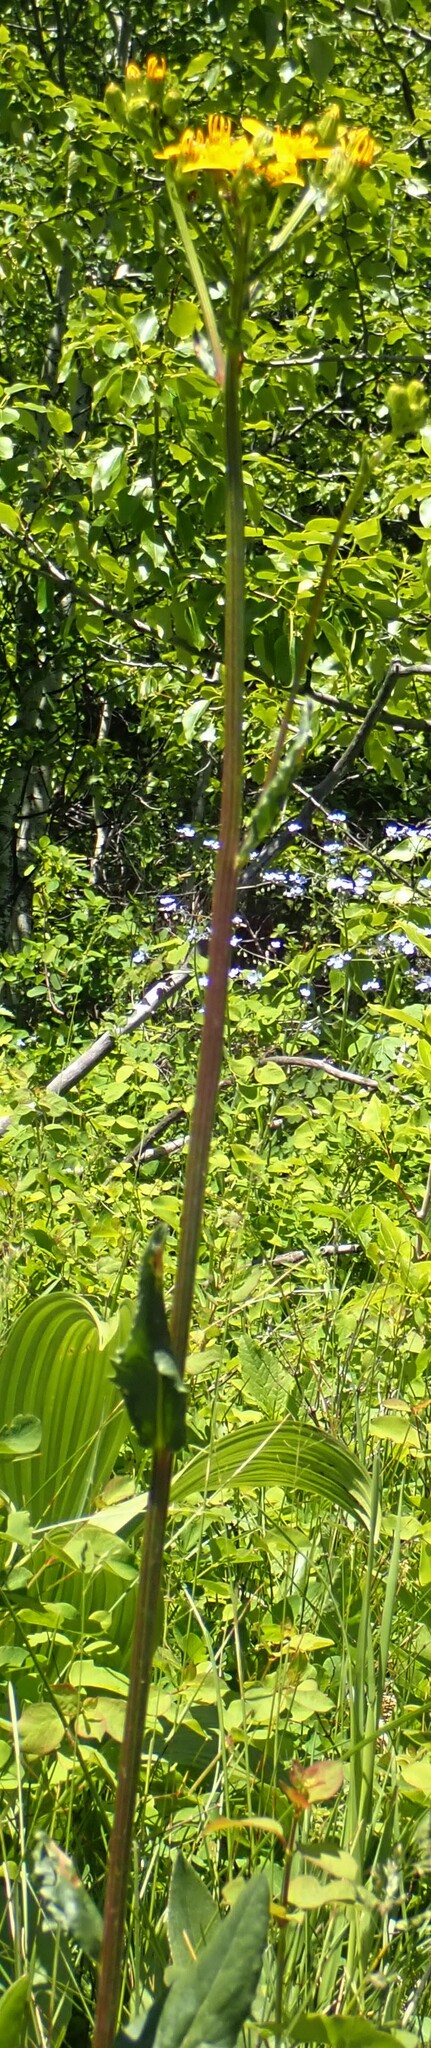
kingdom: Plantae
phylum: Tracheophyta
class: Magnoliopsida
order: Asterales
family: Asteraceae
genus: Senecio
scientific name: Senecio hydrophiloides
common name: Stout meadow groundsel
